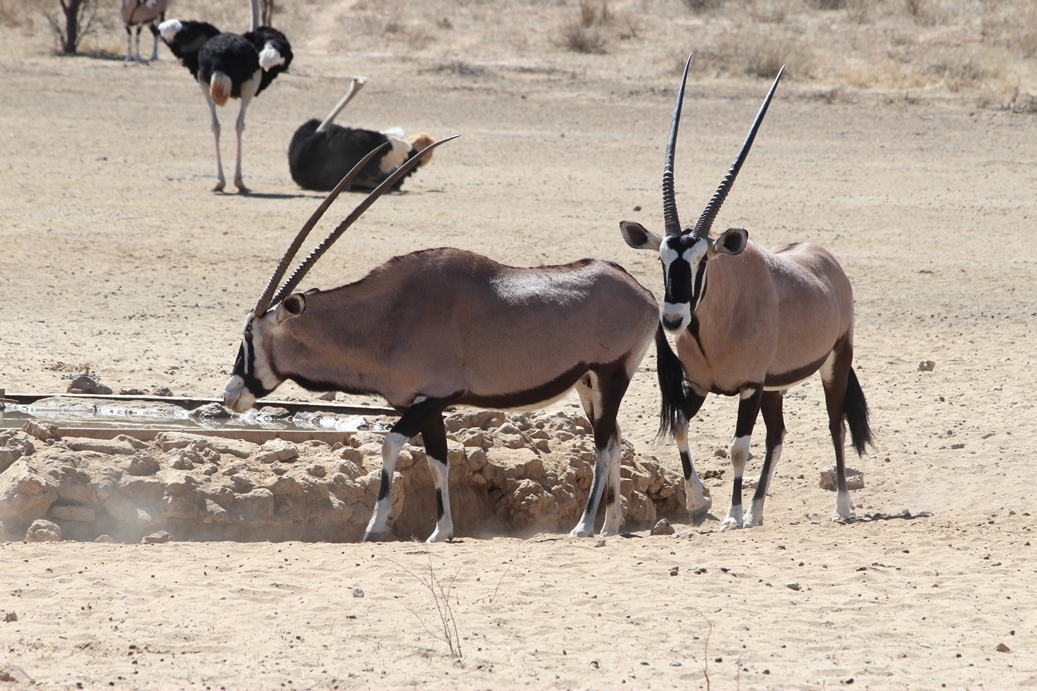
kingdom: Animalia
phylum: Chordata
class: Mammalia
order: Artiodactyla
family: Bovidae
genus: Oryx
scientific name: Oryx gazella
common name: Gemsbok
